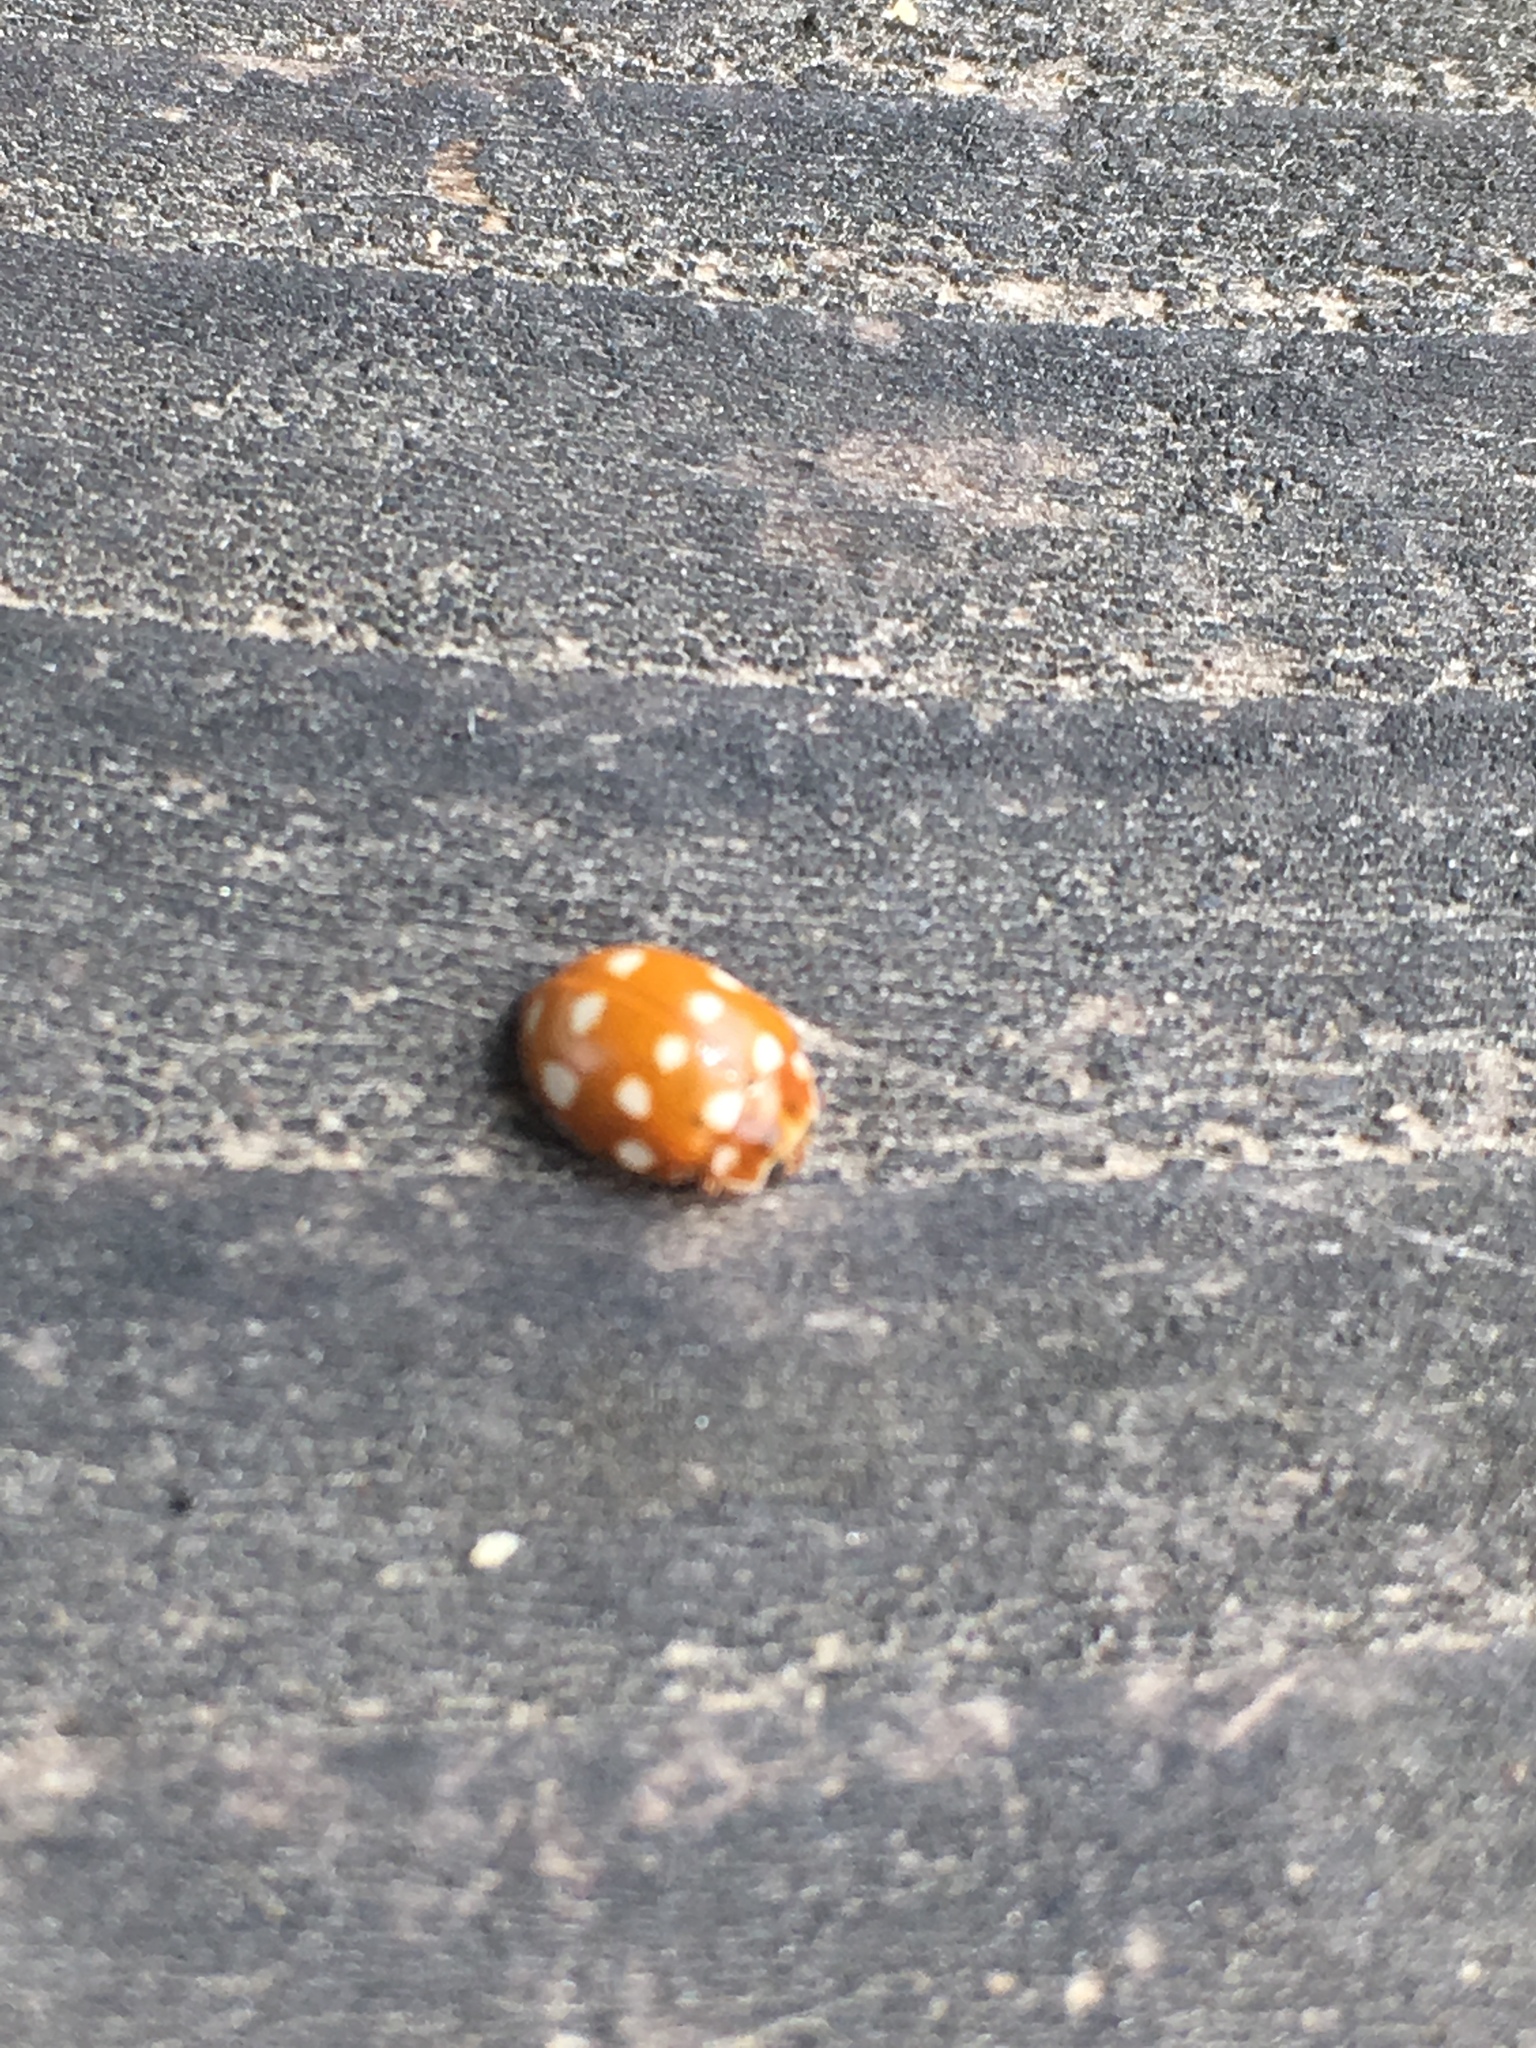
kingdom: Animalia
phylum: Arthropoda
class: Insecta
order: Coleoptera
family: Coccinellidae
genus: Calvia
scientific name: Calvia quatuordecimguttata
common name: Cream-spot ladybird
